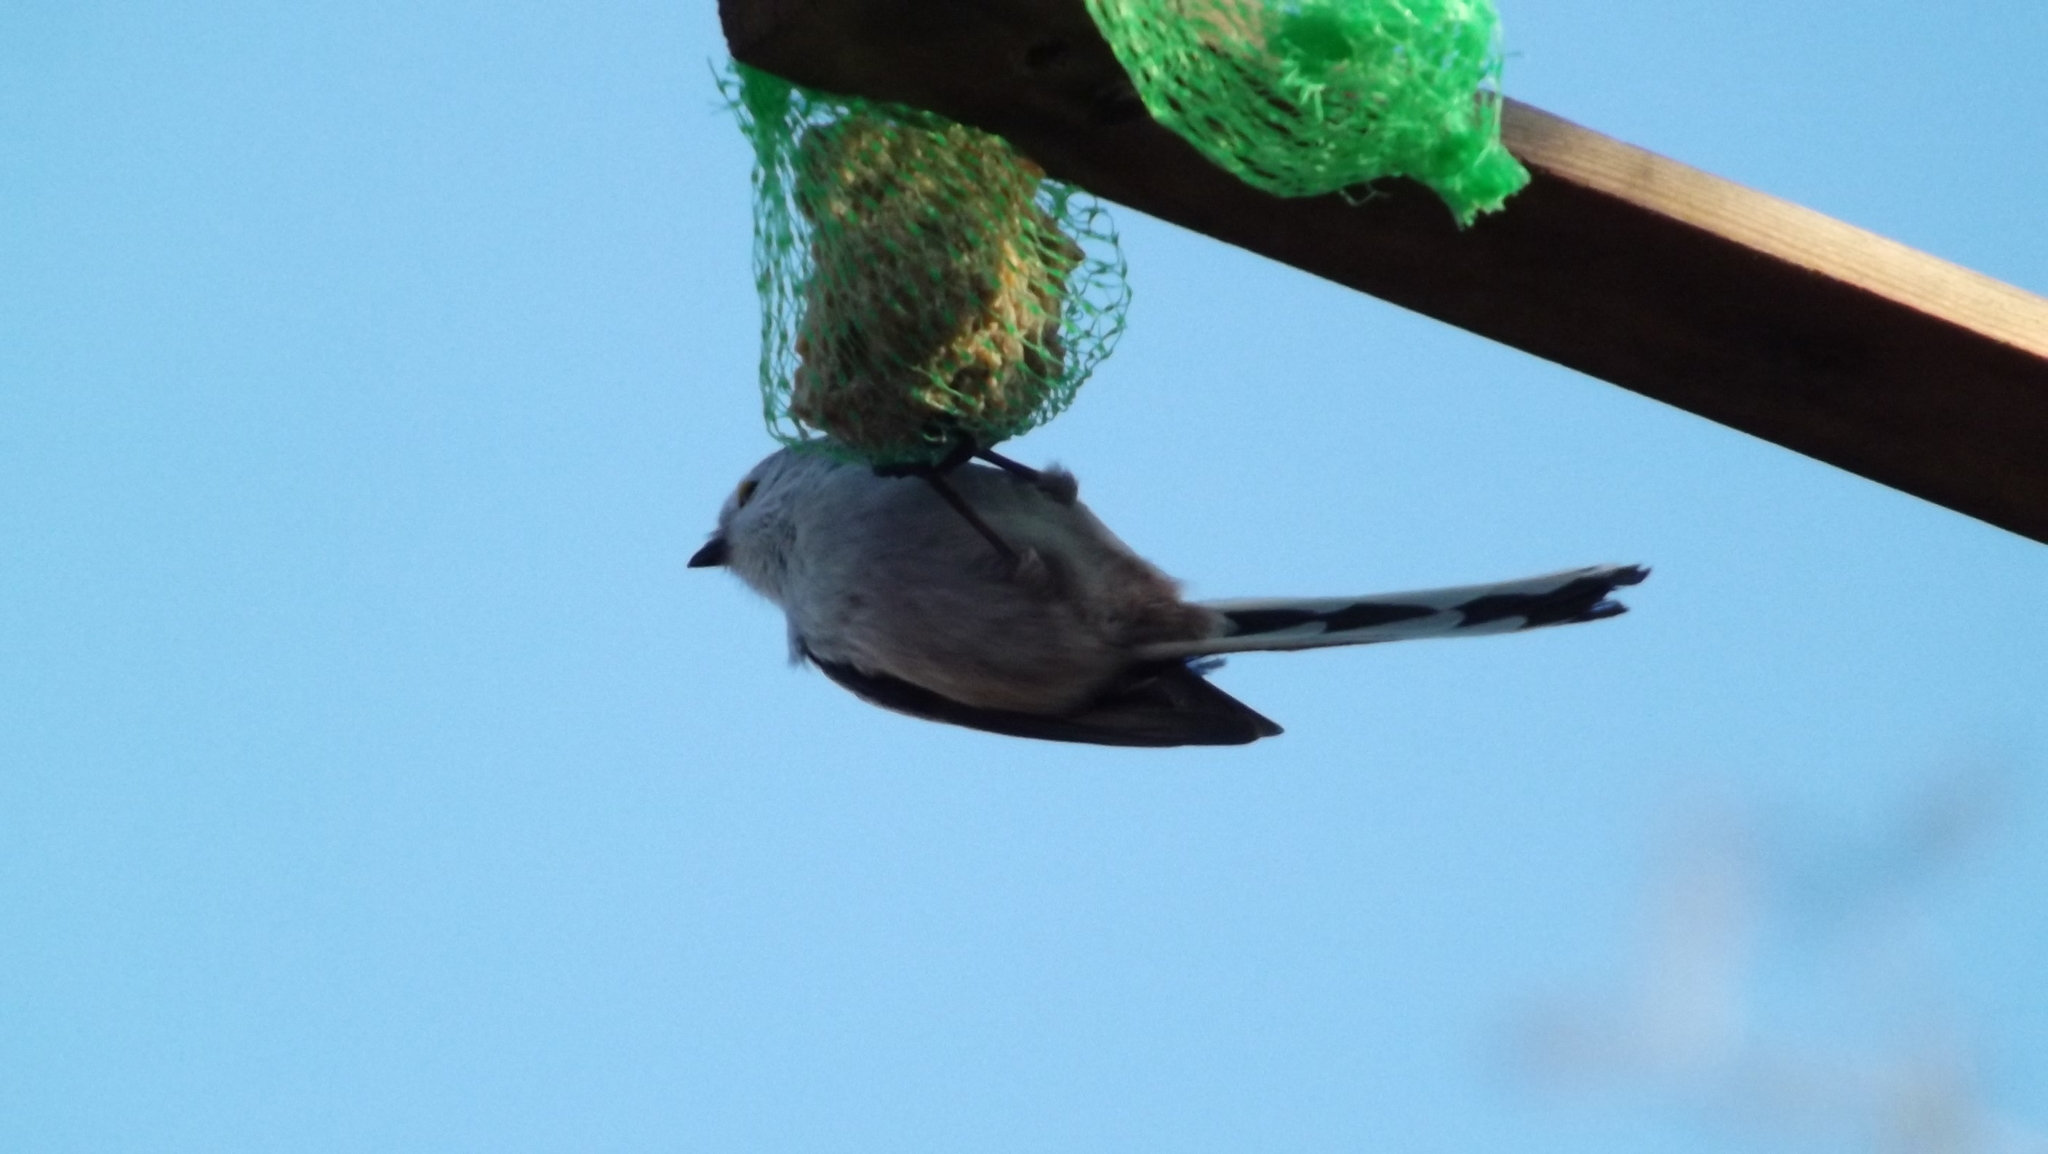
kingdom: Animalia
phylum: Chordata
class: Aves
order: Passeriformes
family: Aegithalidae
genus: Aegithalos
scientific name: Aegithalos caudatus
